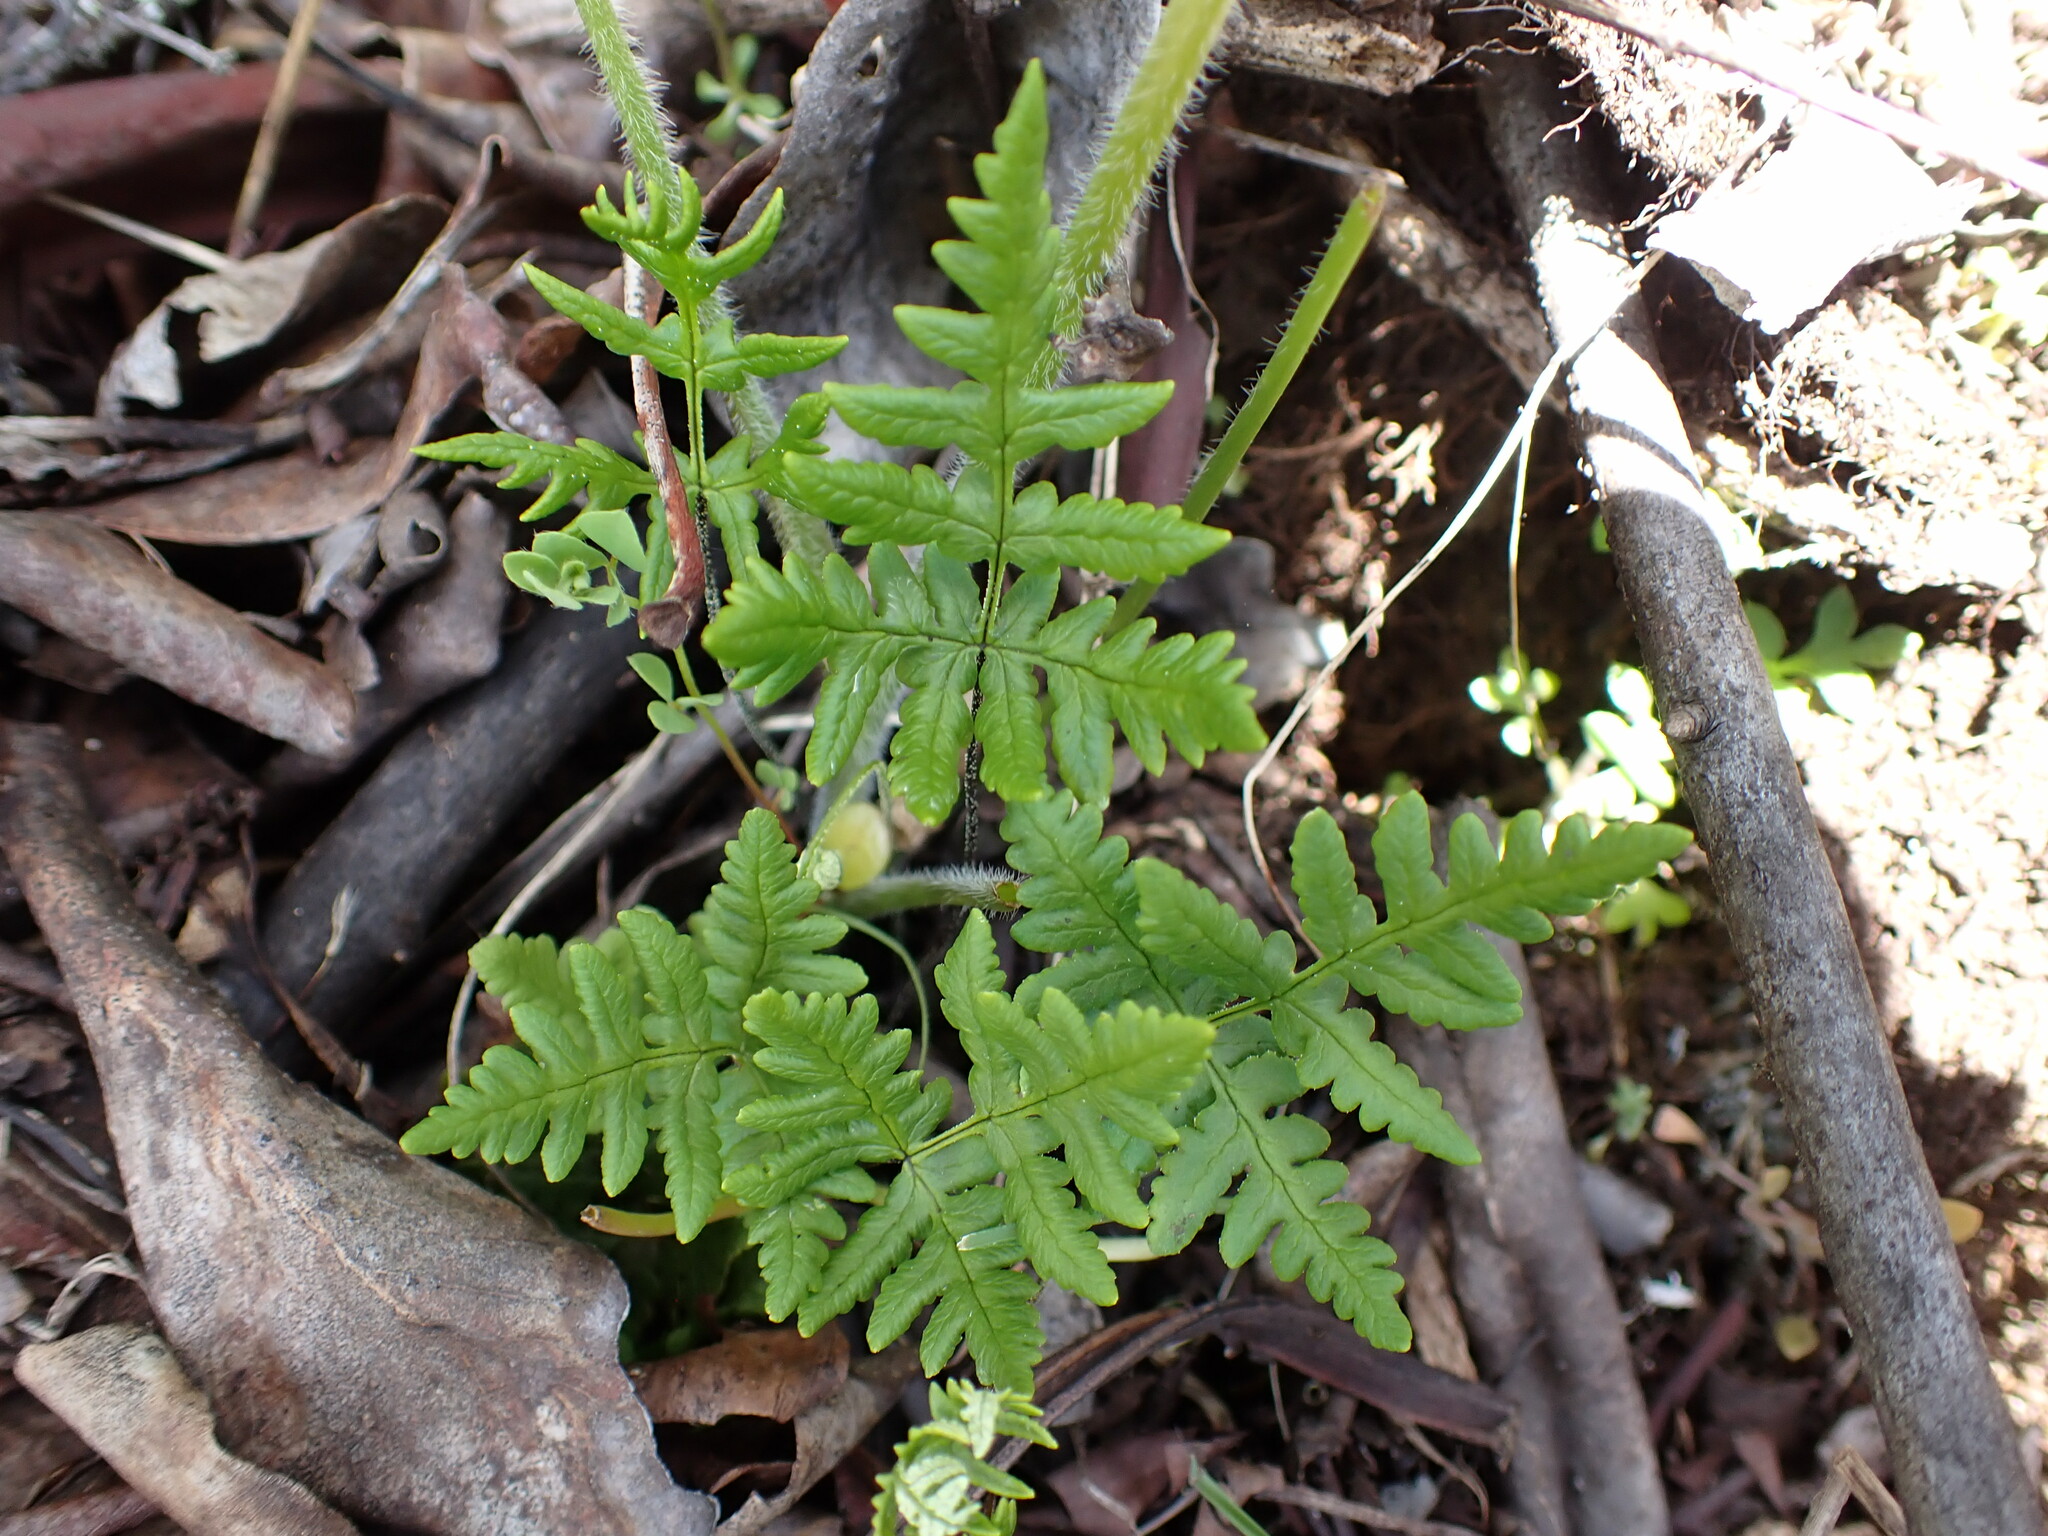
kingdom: Plantae
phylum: Tracheophyta
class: Polypodiopsida
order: Polypodiales
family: Pteridaceae
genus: Pentagramma
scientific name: Pentagramma triangularis
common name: Gold fern
